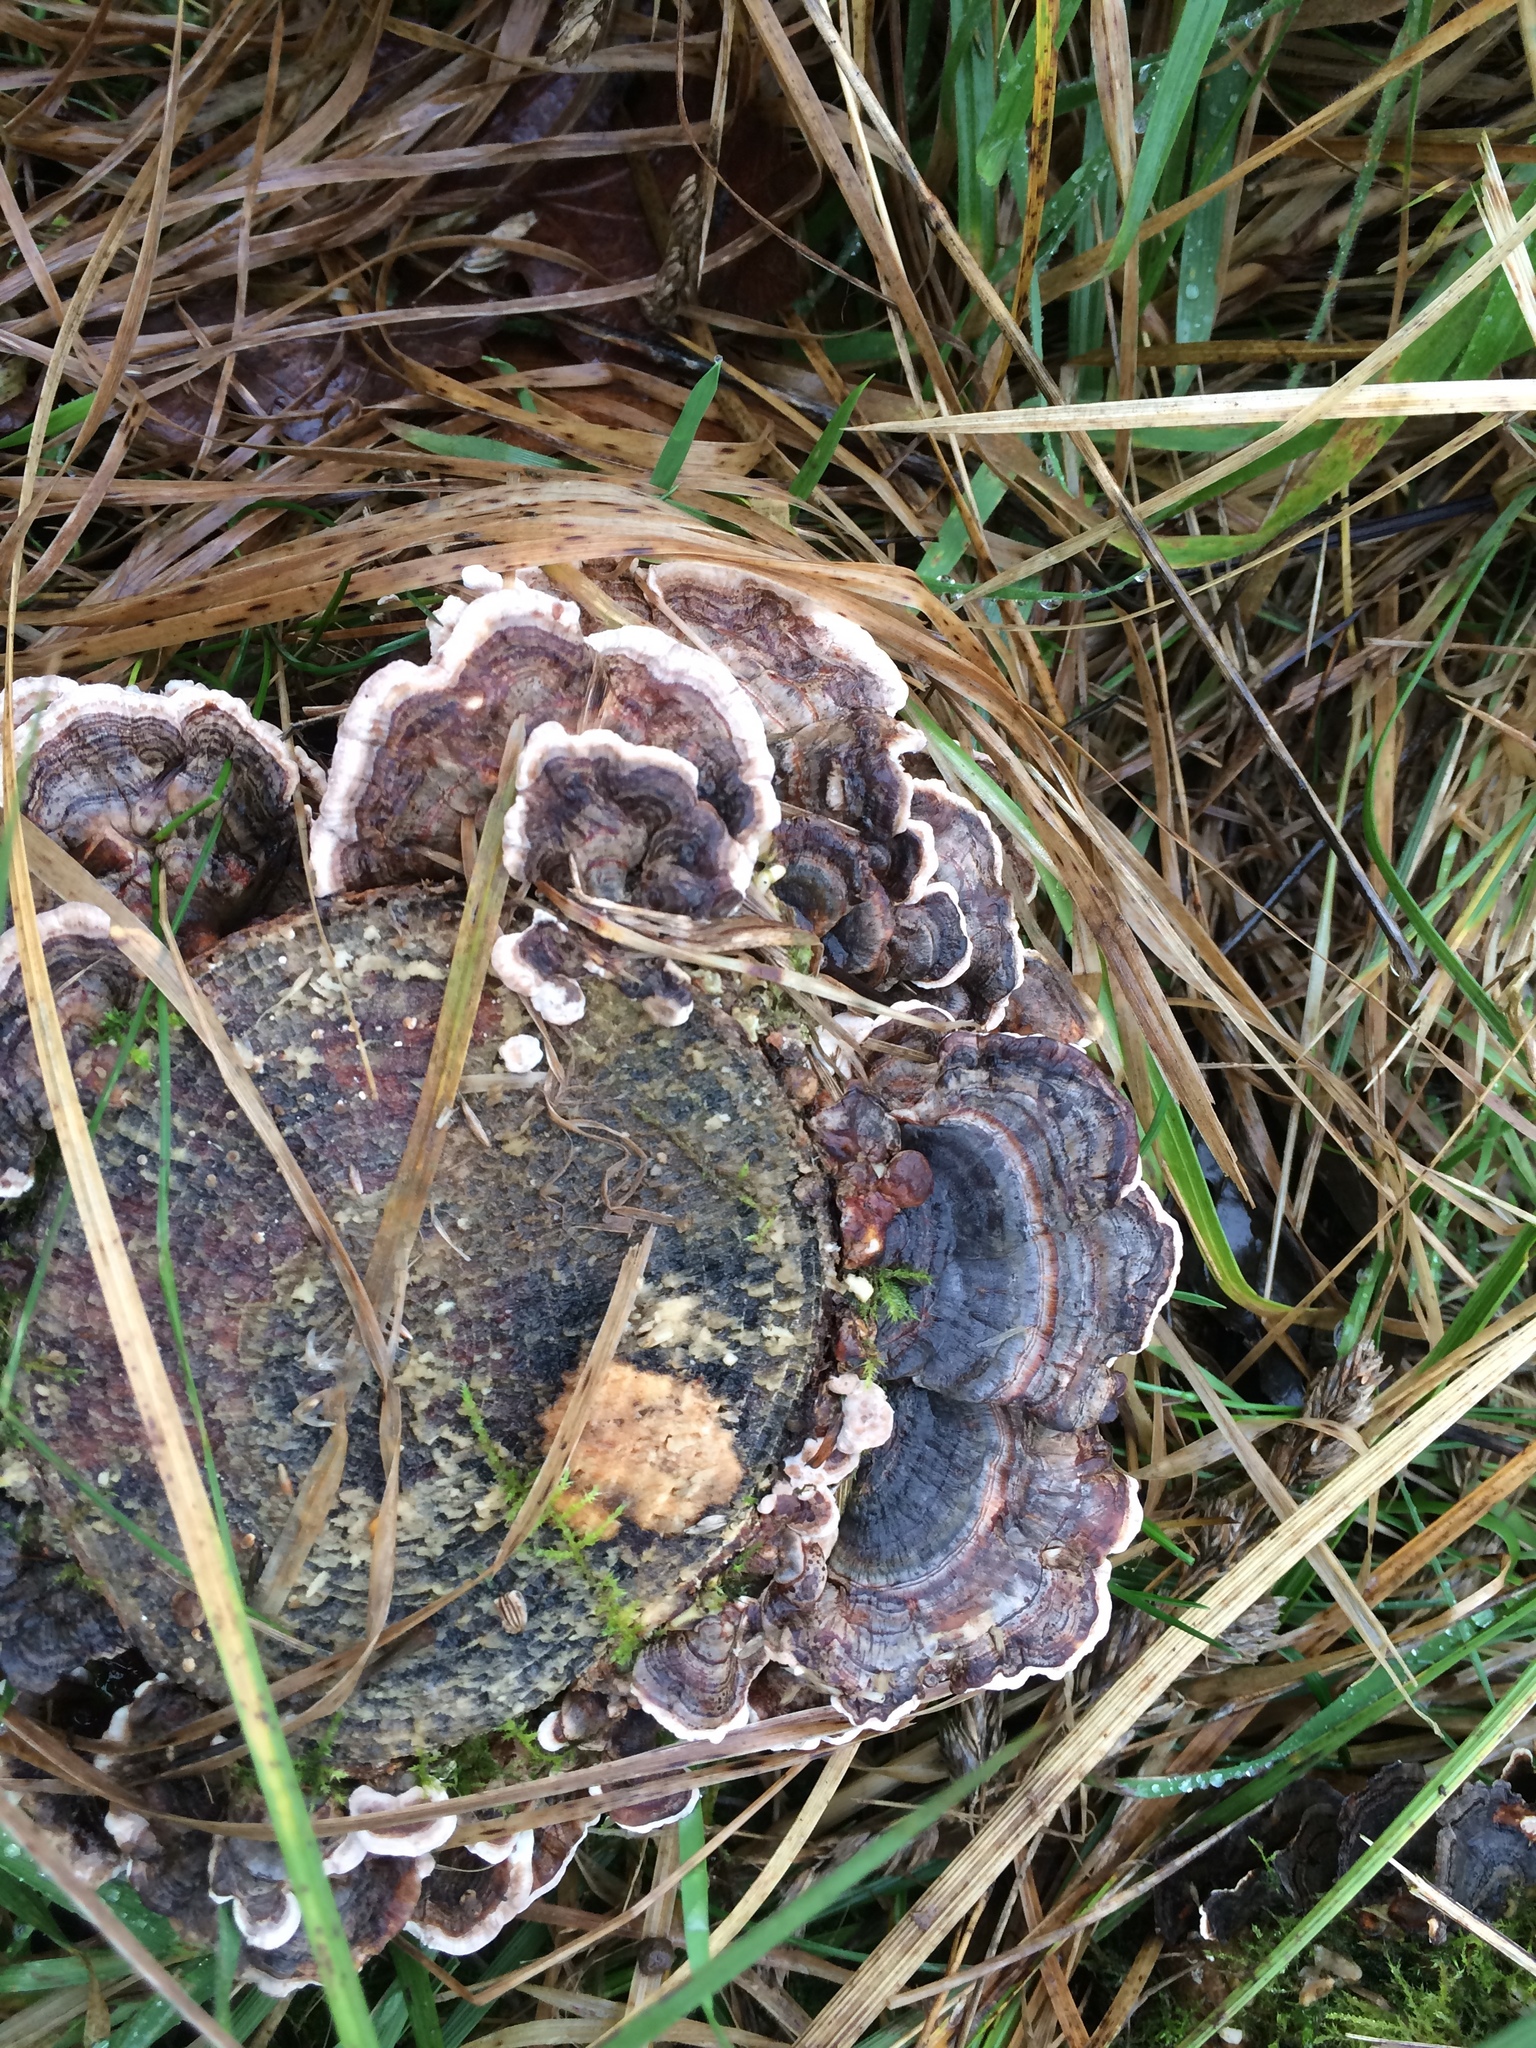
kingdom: Fungi
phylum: Basidiomycota
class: Agaricomycetes
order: Polyporales
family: Polyporaceae
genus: Trametes
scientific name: Trametes versicolor
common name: Turkeytail
